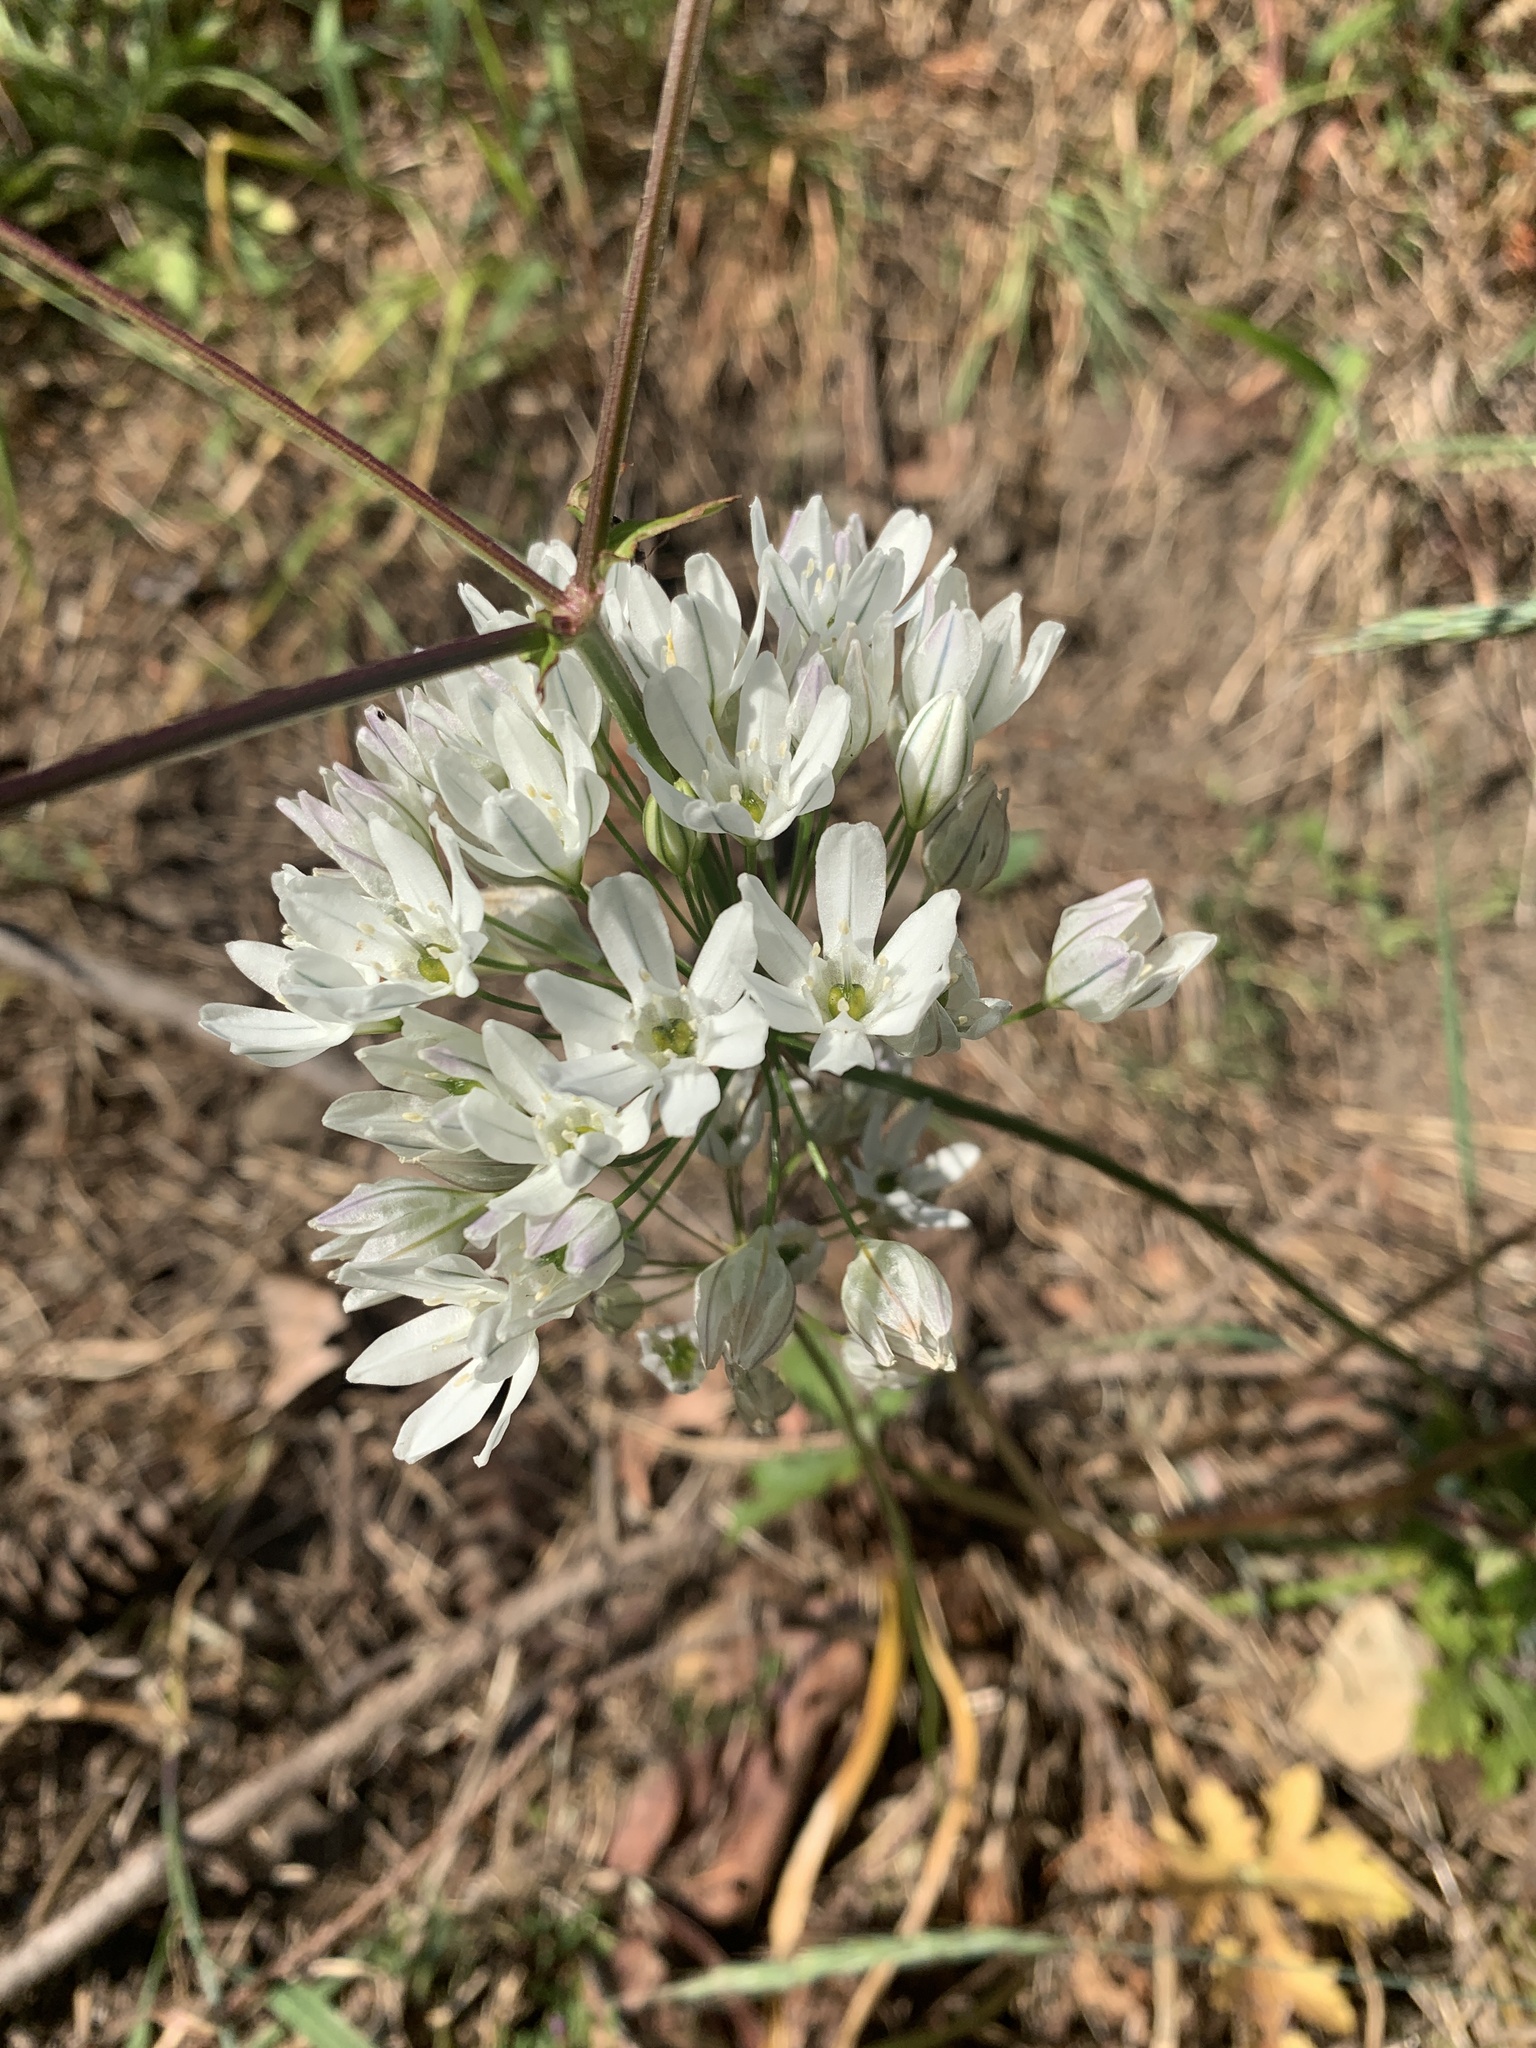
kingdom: Plantae
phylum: Tracheophyta
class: Liliopsida
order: Asparagales
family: Asparagaceae
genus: Triteleia
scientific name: Triteleia hyacinthina
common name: White brodiaea
